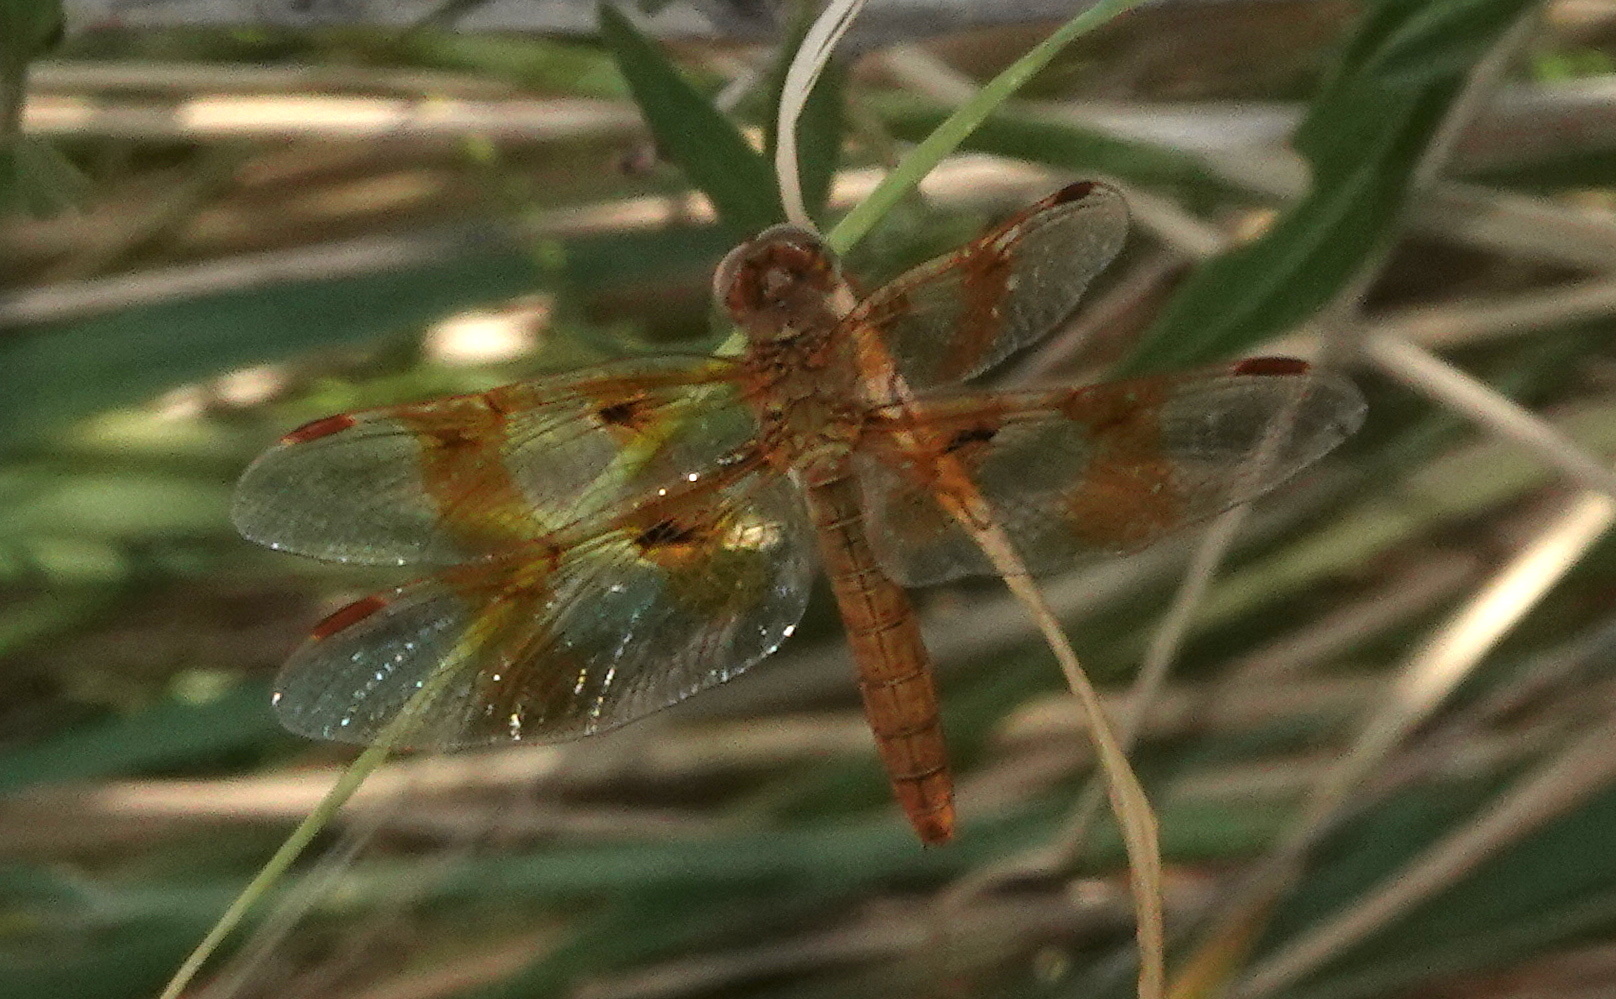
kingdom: Animalia
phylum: Arthropoda
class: Insecta
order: Odonata
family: Libellulidae
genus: Perithemis
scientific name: Perithemis intensa
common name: Mexican amberwing
